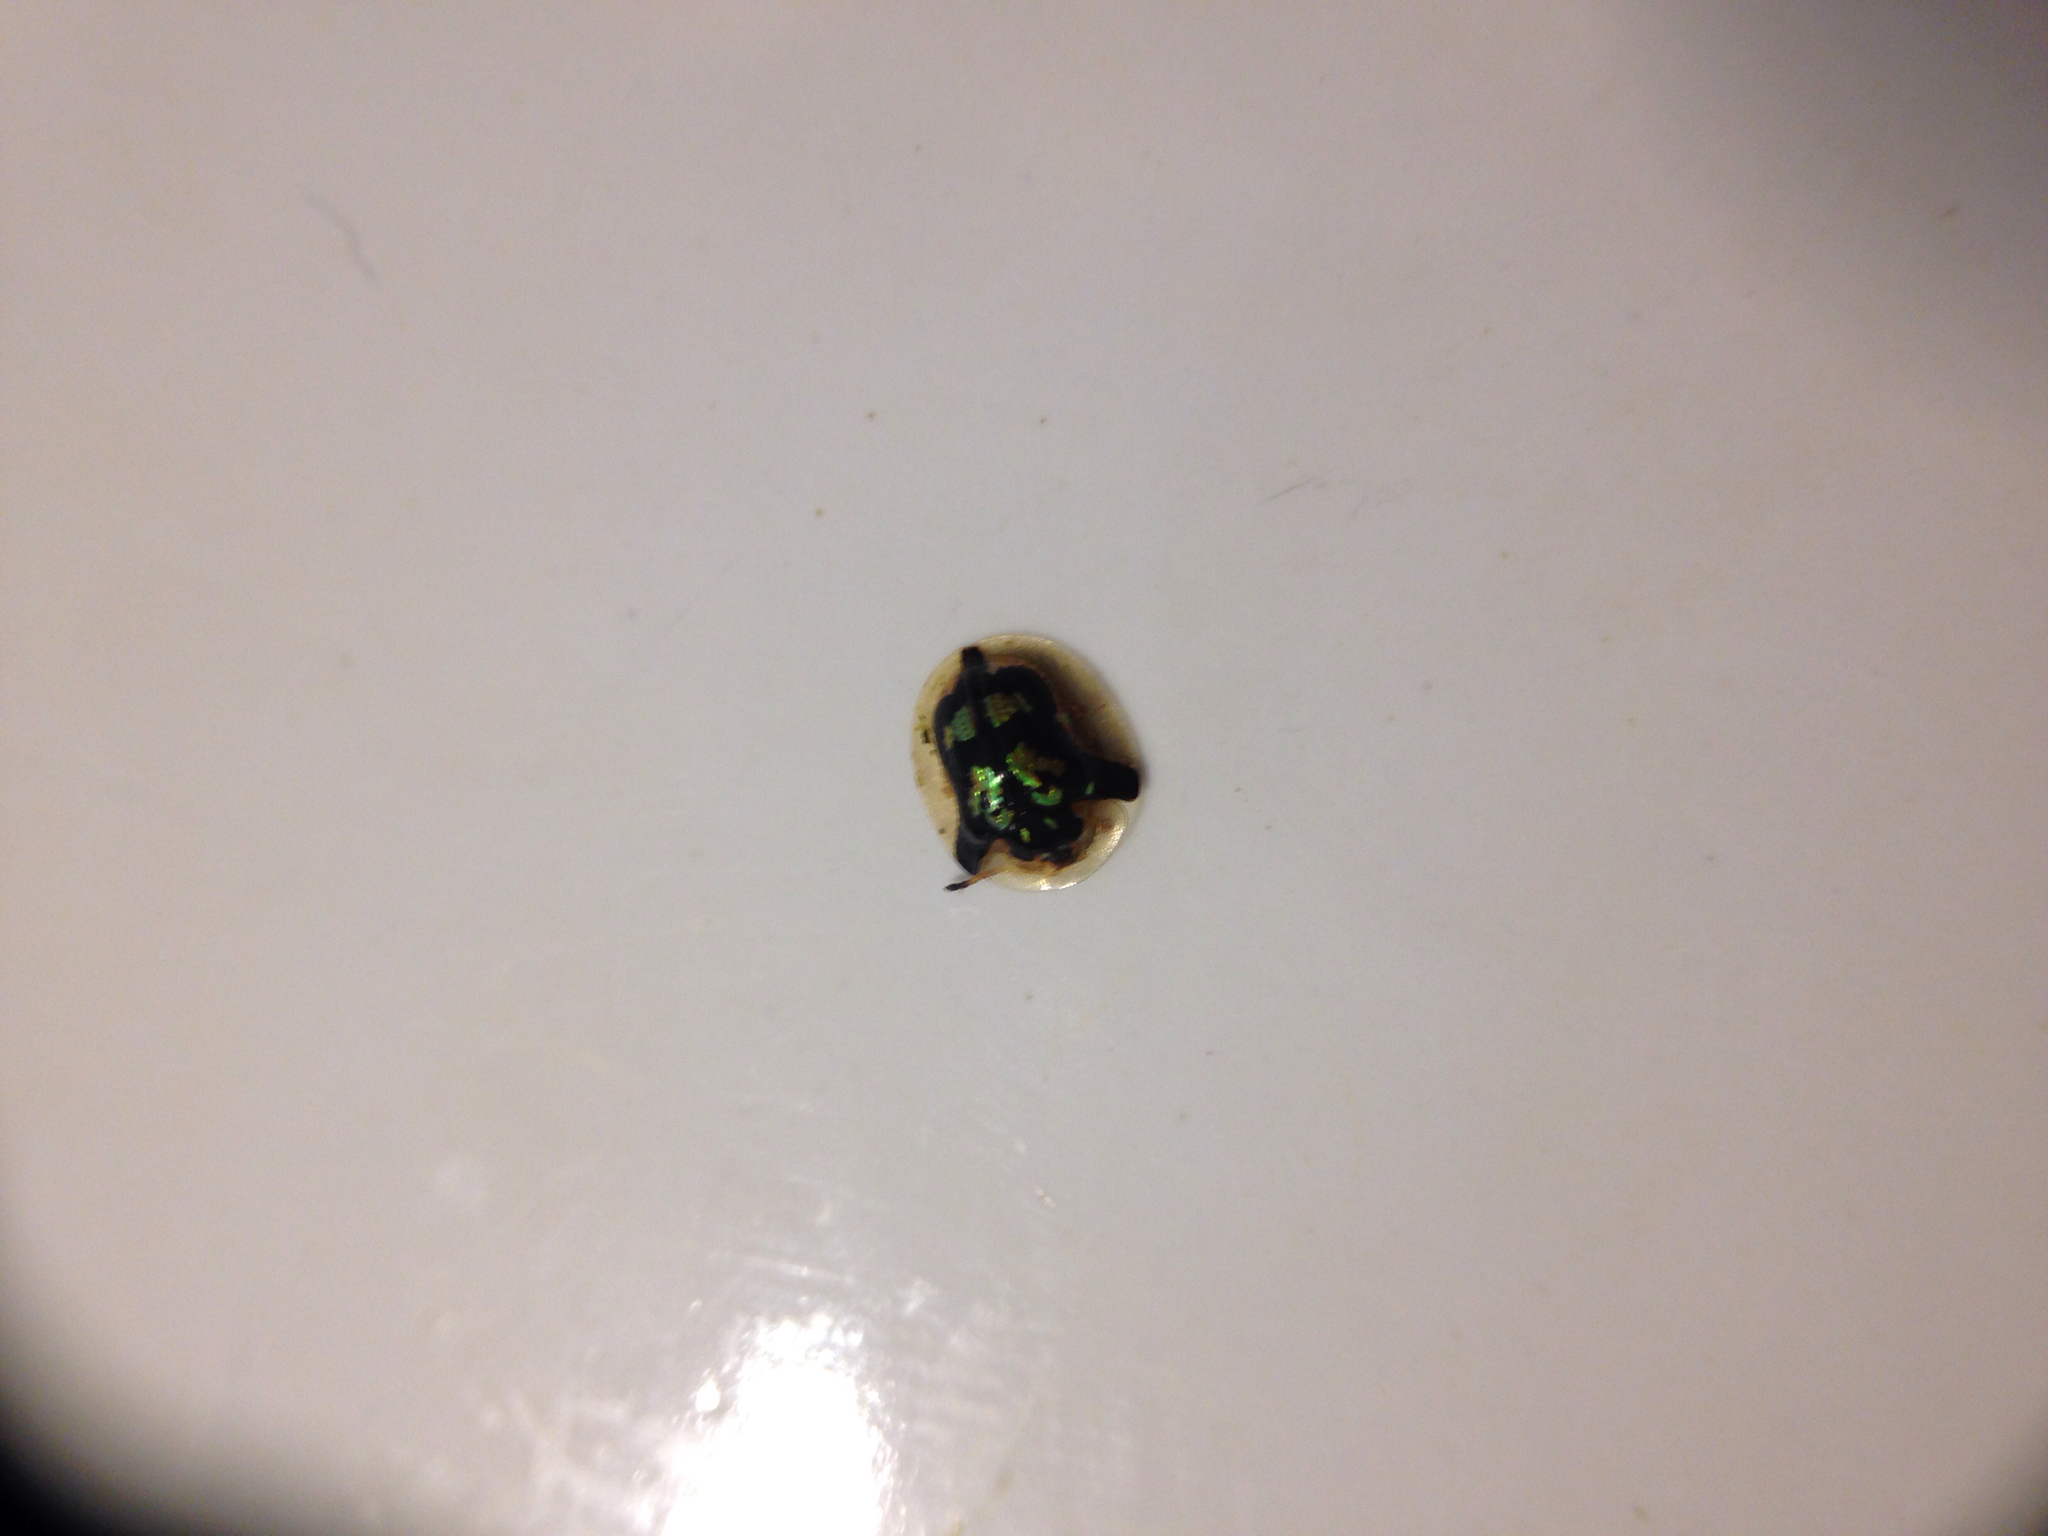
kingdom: Animalia
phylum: Arthropoda
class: Insecta
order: Coleoptera
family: Chrysomelidae
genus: Deloyala
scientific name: Deloyala guttata
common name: Mottled tortoise beetle
